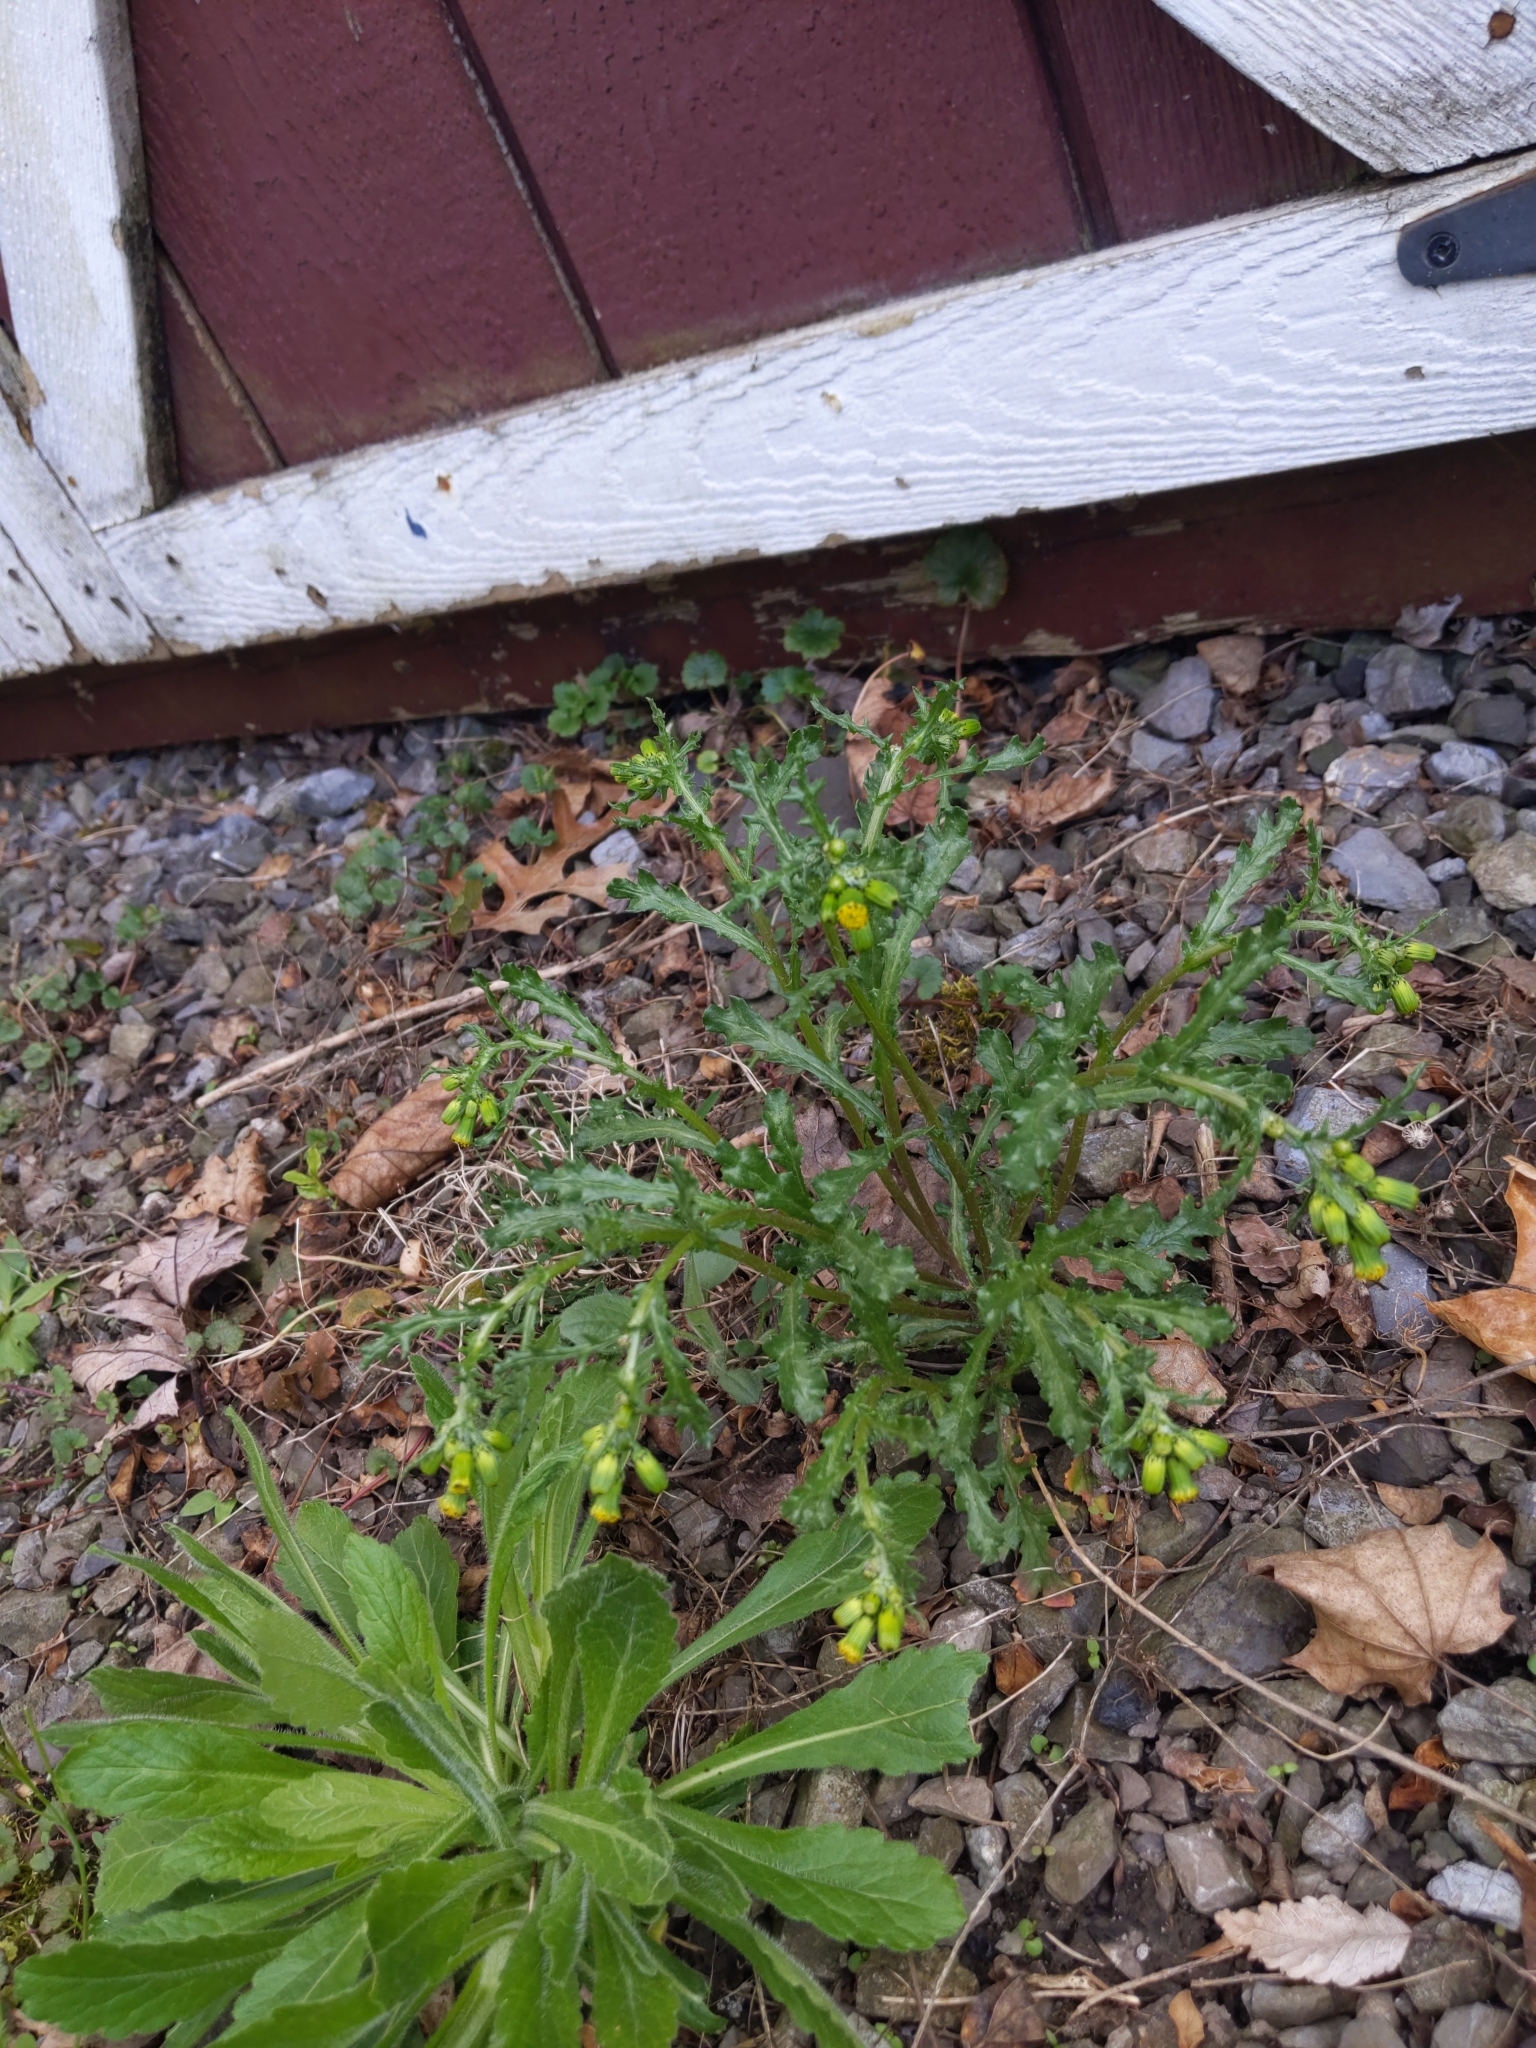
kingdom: Plantae
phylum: Tracheophyta
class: Magnoliopsida
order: Asterales
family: Asteraceae
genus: Senecio
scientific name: Senecio vulgaris
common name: Old-man-in-the-spring
